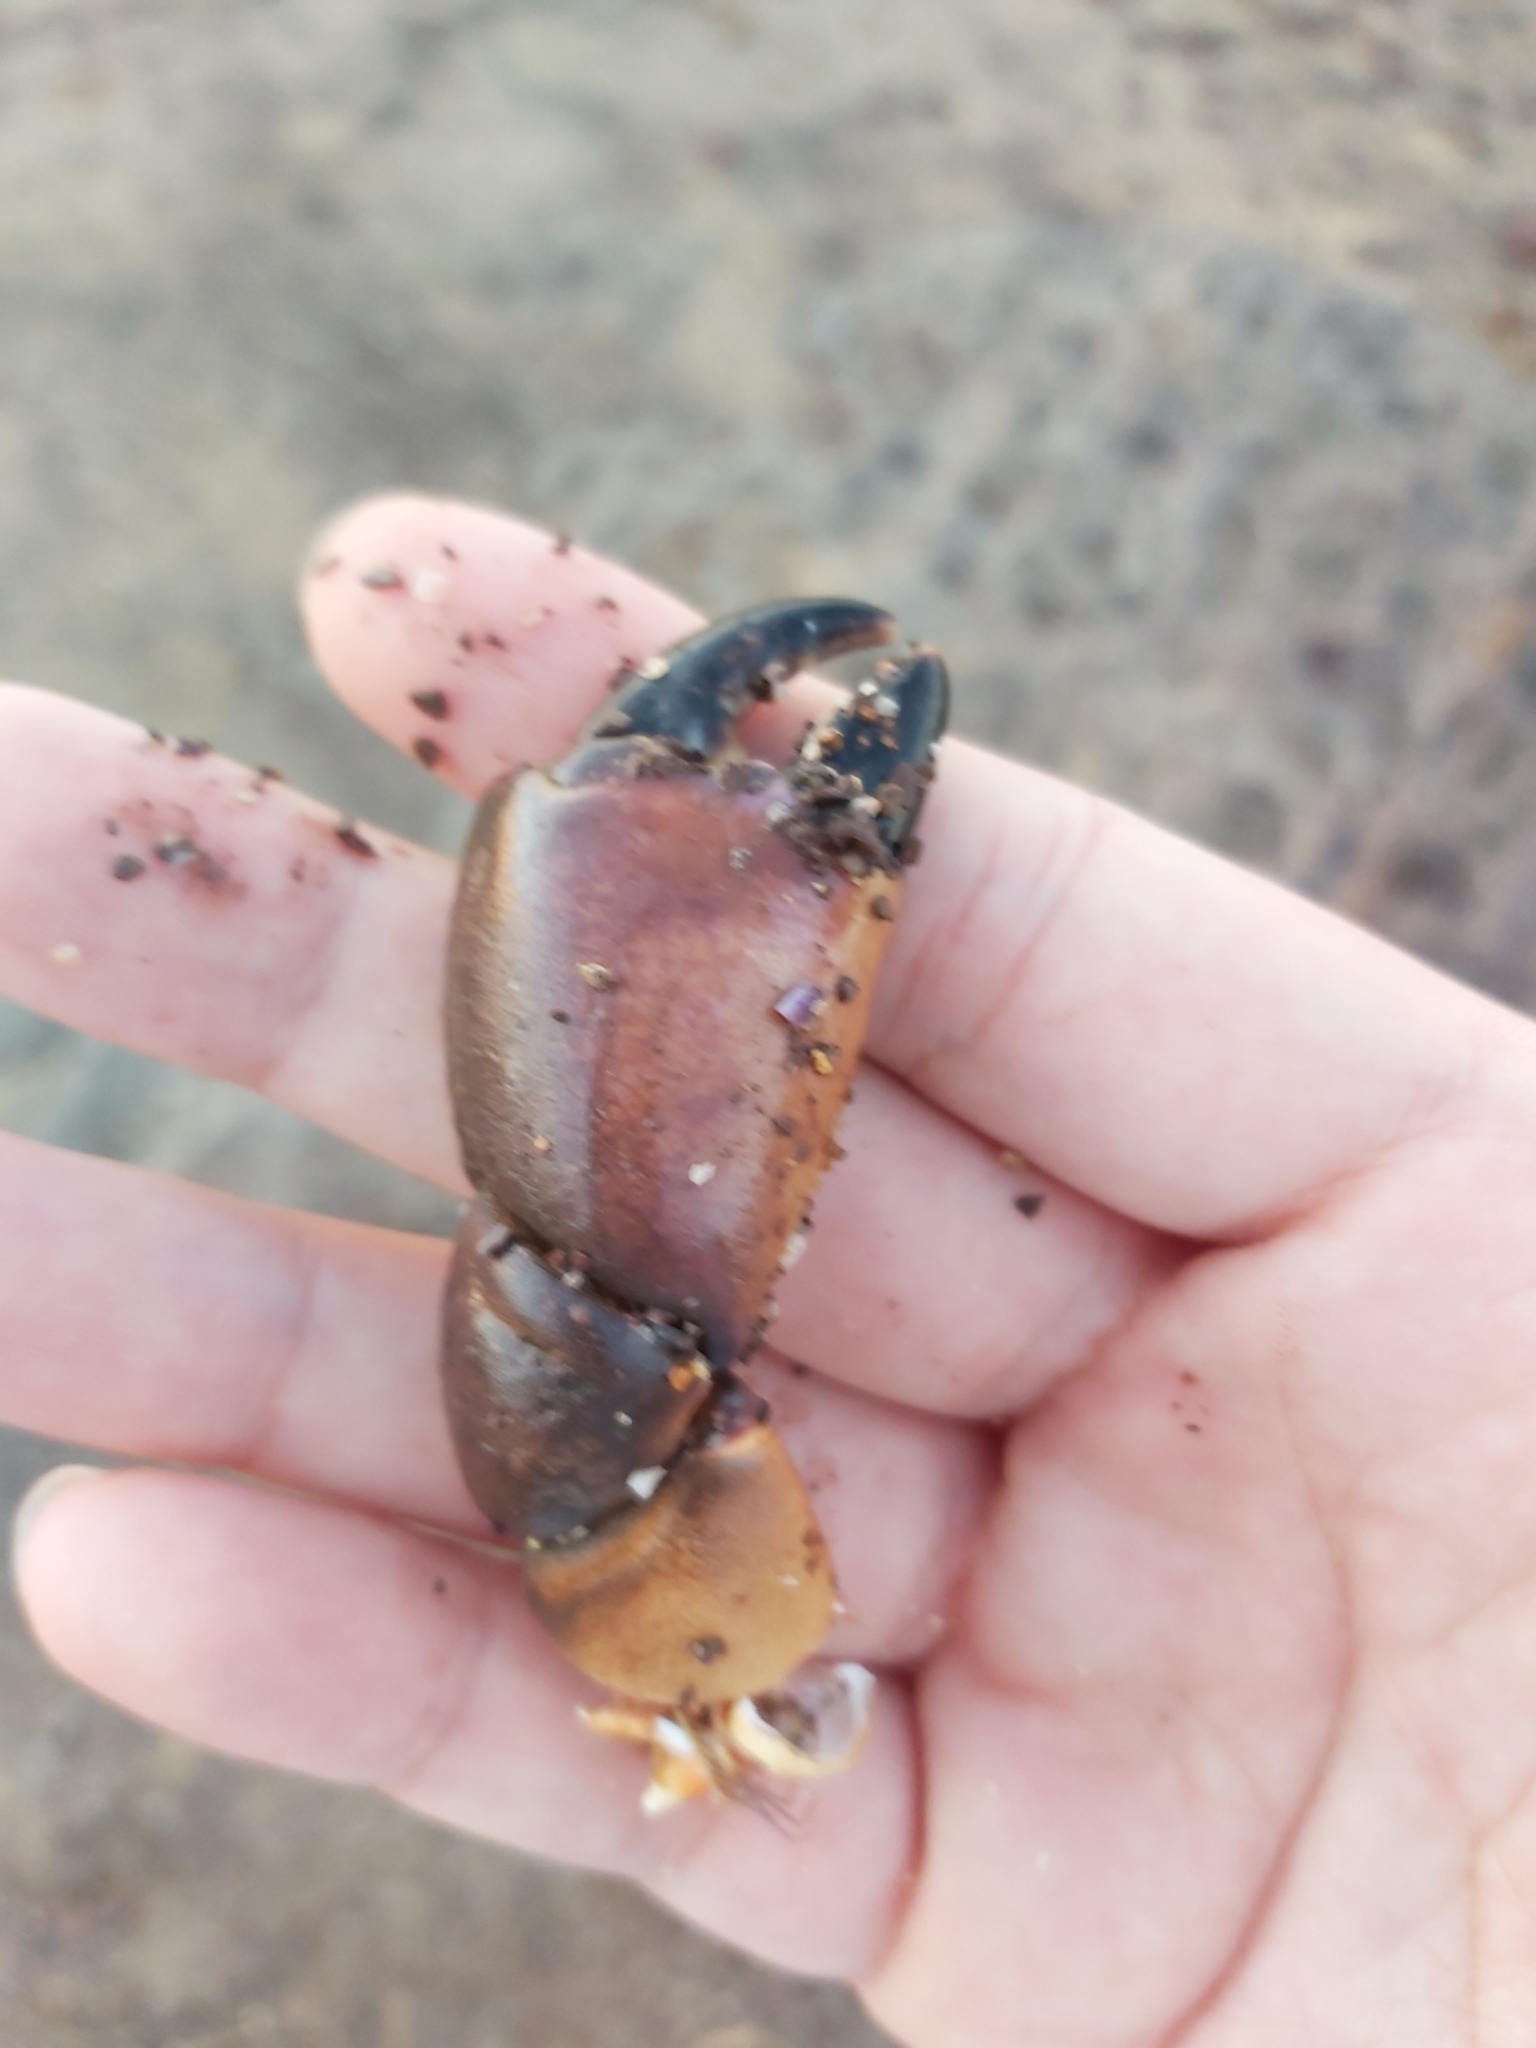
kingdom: Animalia
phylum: Arthropoda
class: Malacostraca
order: Decapoda
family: Oziidae
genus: Ozius
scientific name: Ozius truncatus
